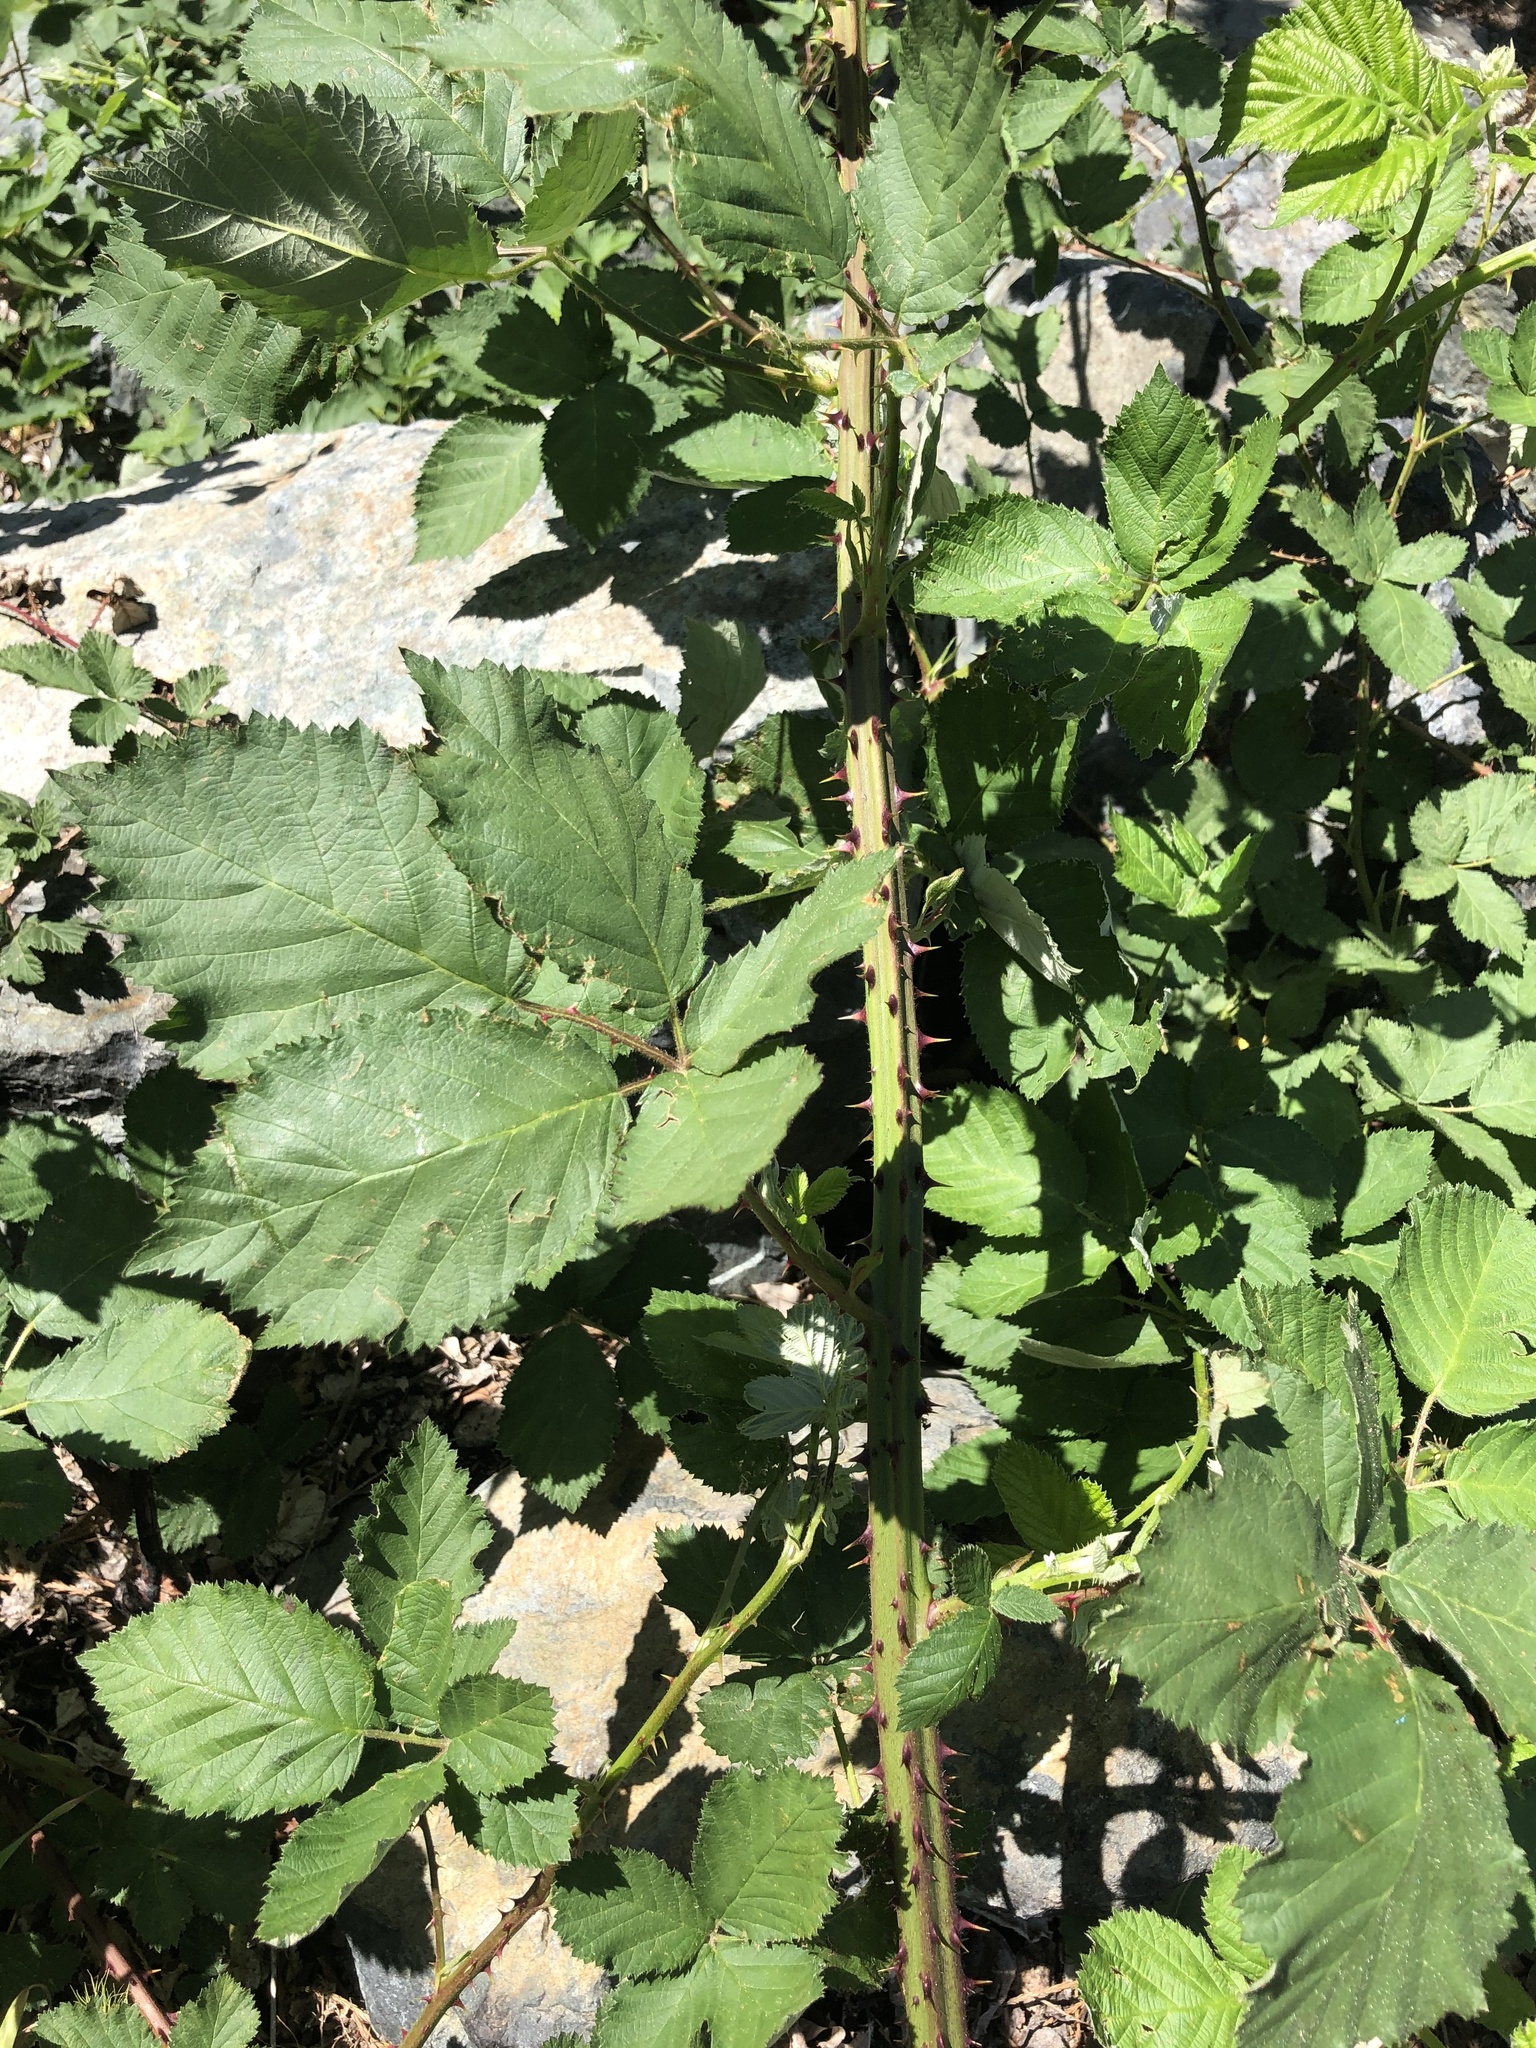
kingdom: Plantae
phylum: Tracheophyta
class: Magnoliopsida
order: Rosales
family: Rosaceae
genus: Rubus
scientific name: Rubus armeniacus
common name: Himalayan blackberry
